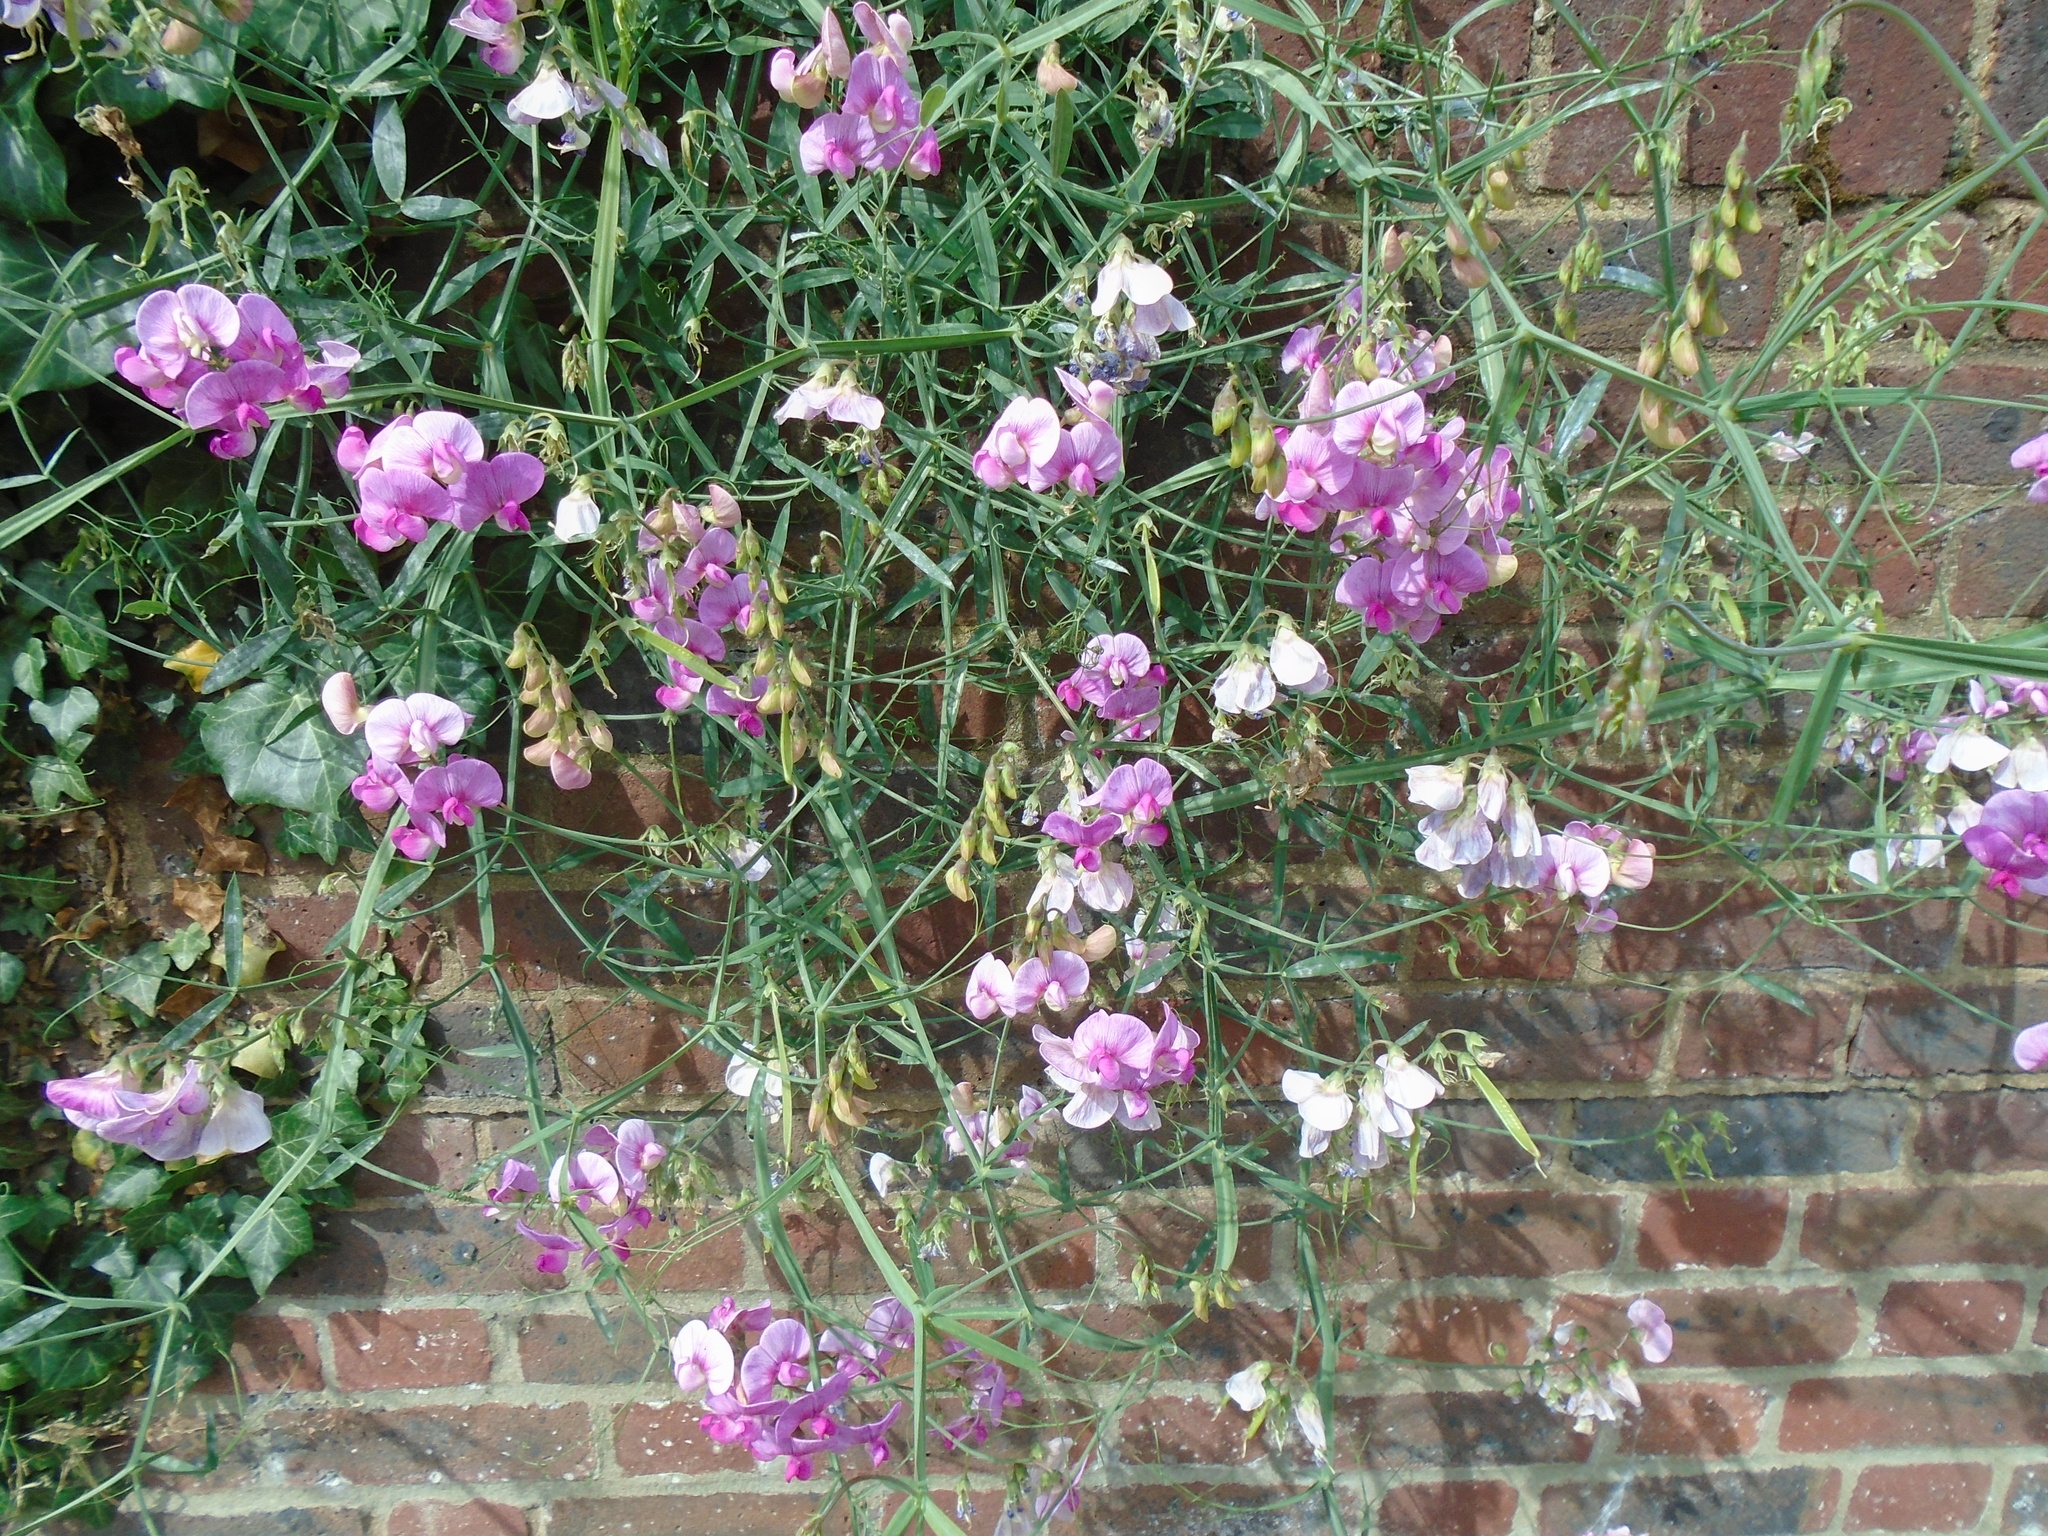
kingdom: Plantae
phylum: Tracheophyta
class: Magnoliopsida
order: Fabales
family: Fabaceae
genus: Lathyrus
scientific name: Lathyrus latifolius
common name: Perennial pea
